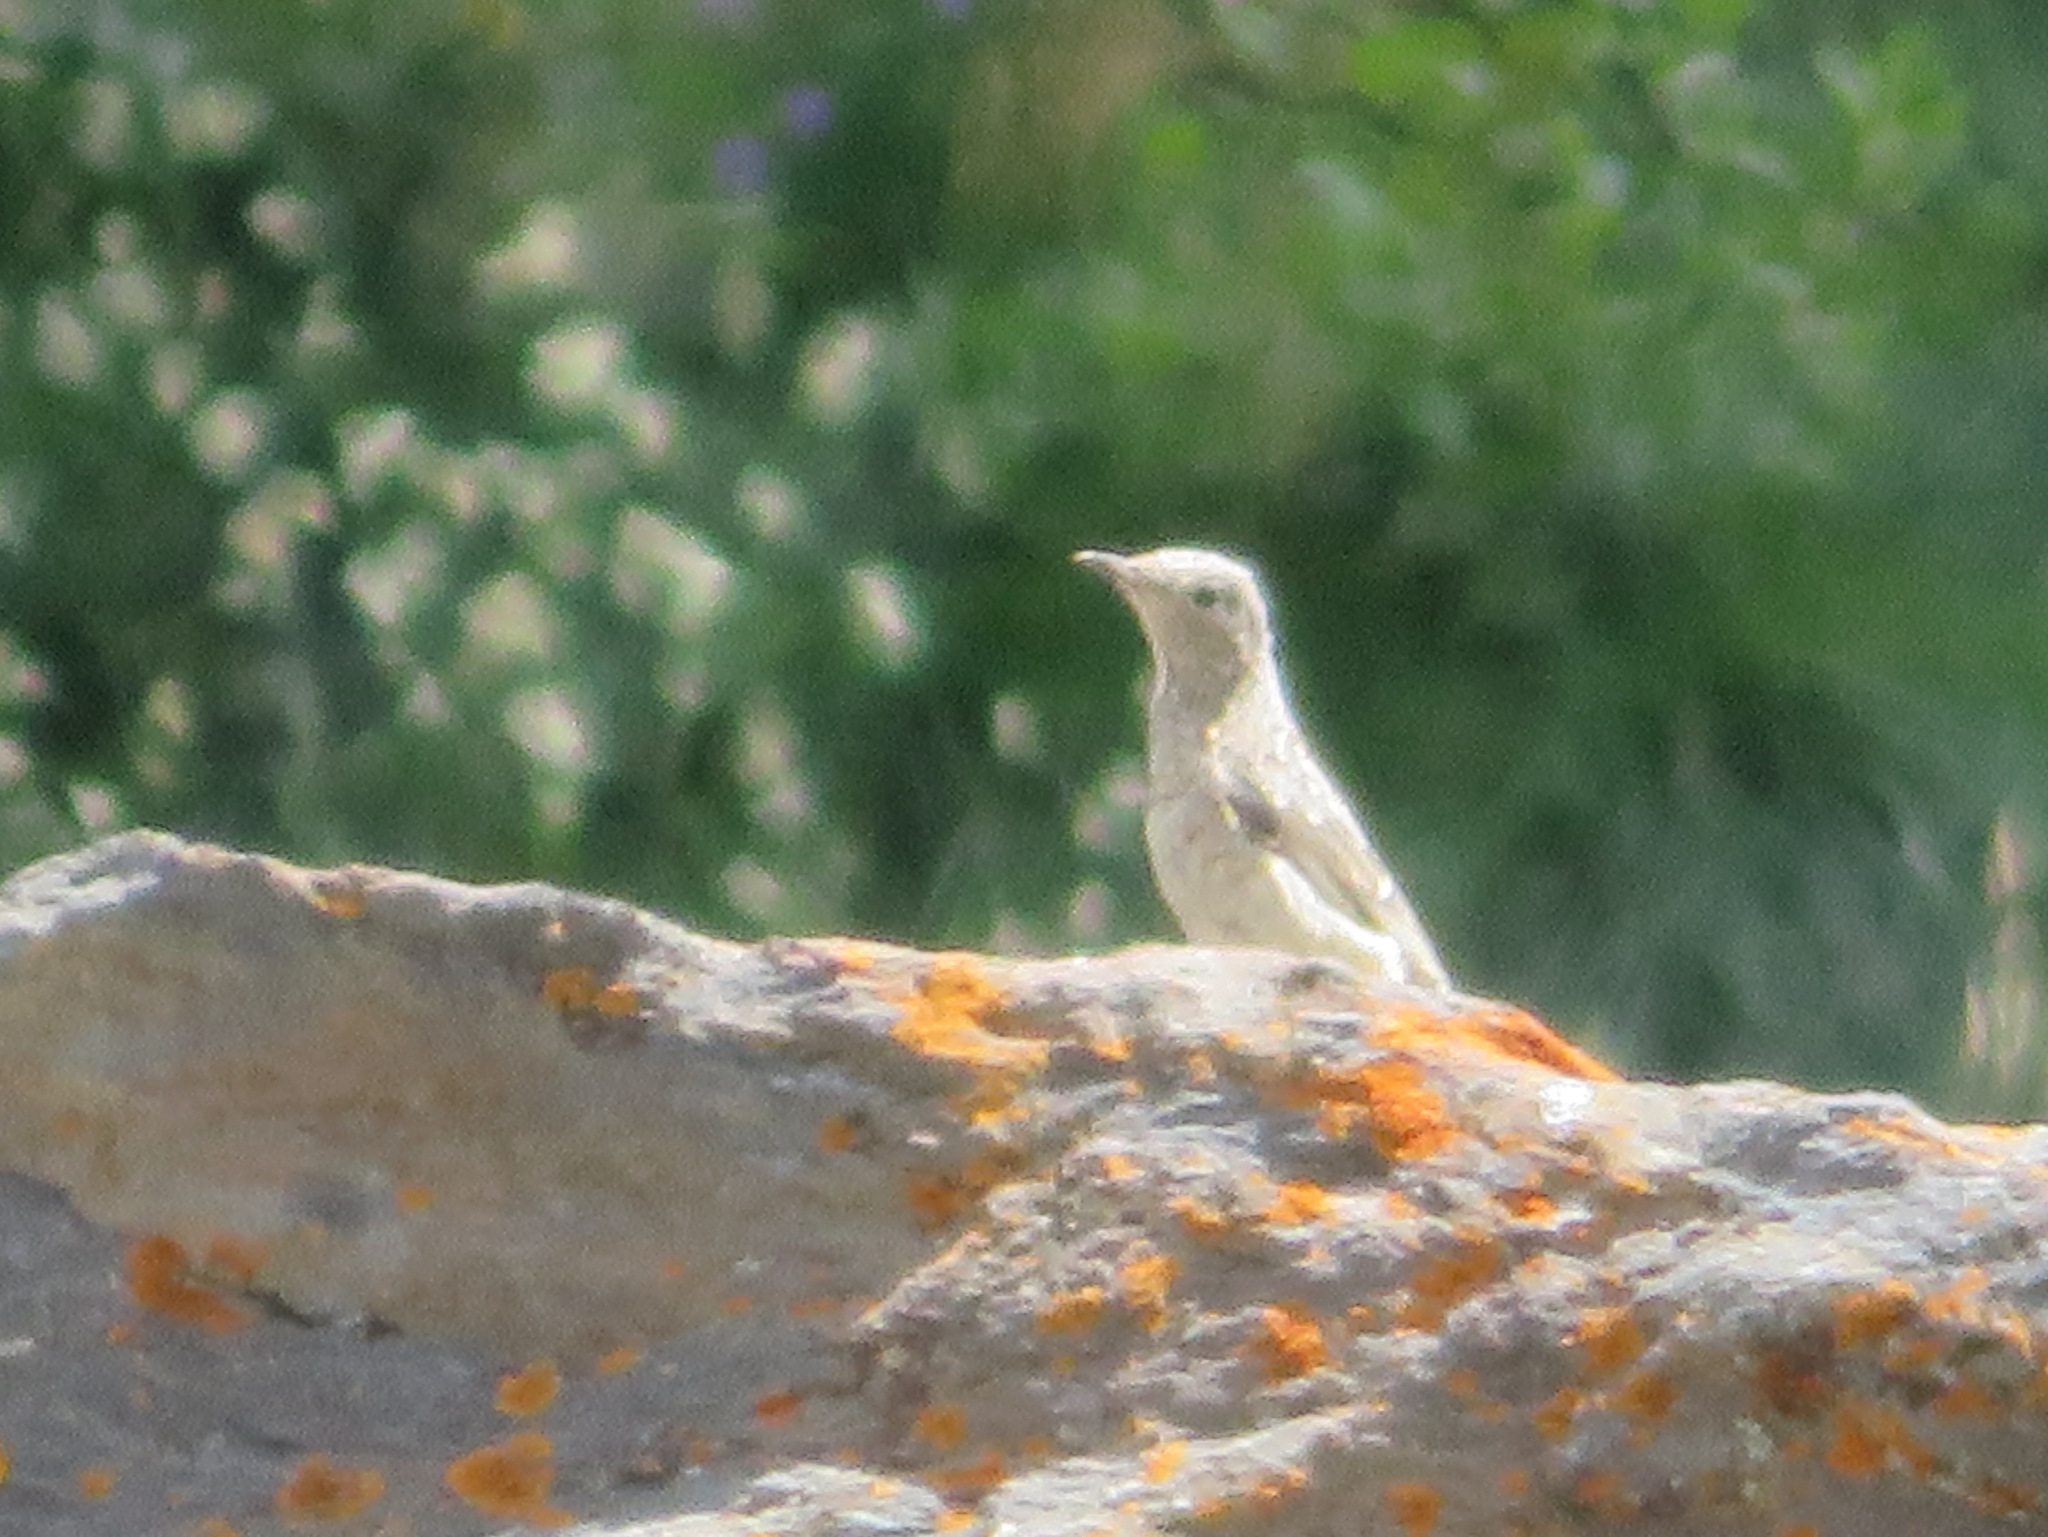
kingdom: Animalia
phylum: Chordata
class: Aves
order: Passeriformes
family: Muscicapidae
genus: Monticola
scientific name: Monticola saxatilis
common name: Rufous-tailed rock thrush
